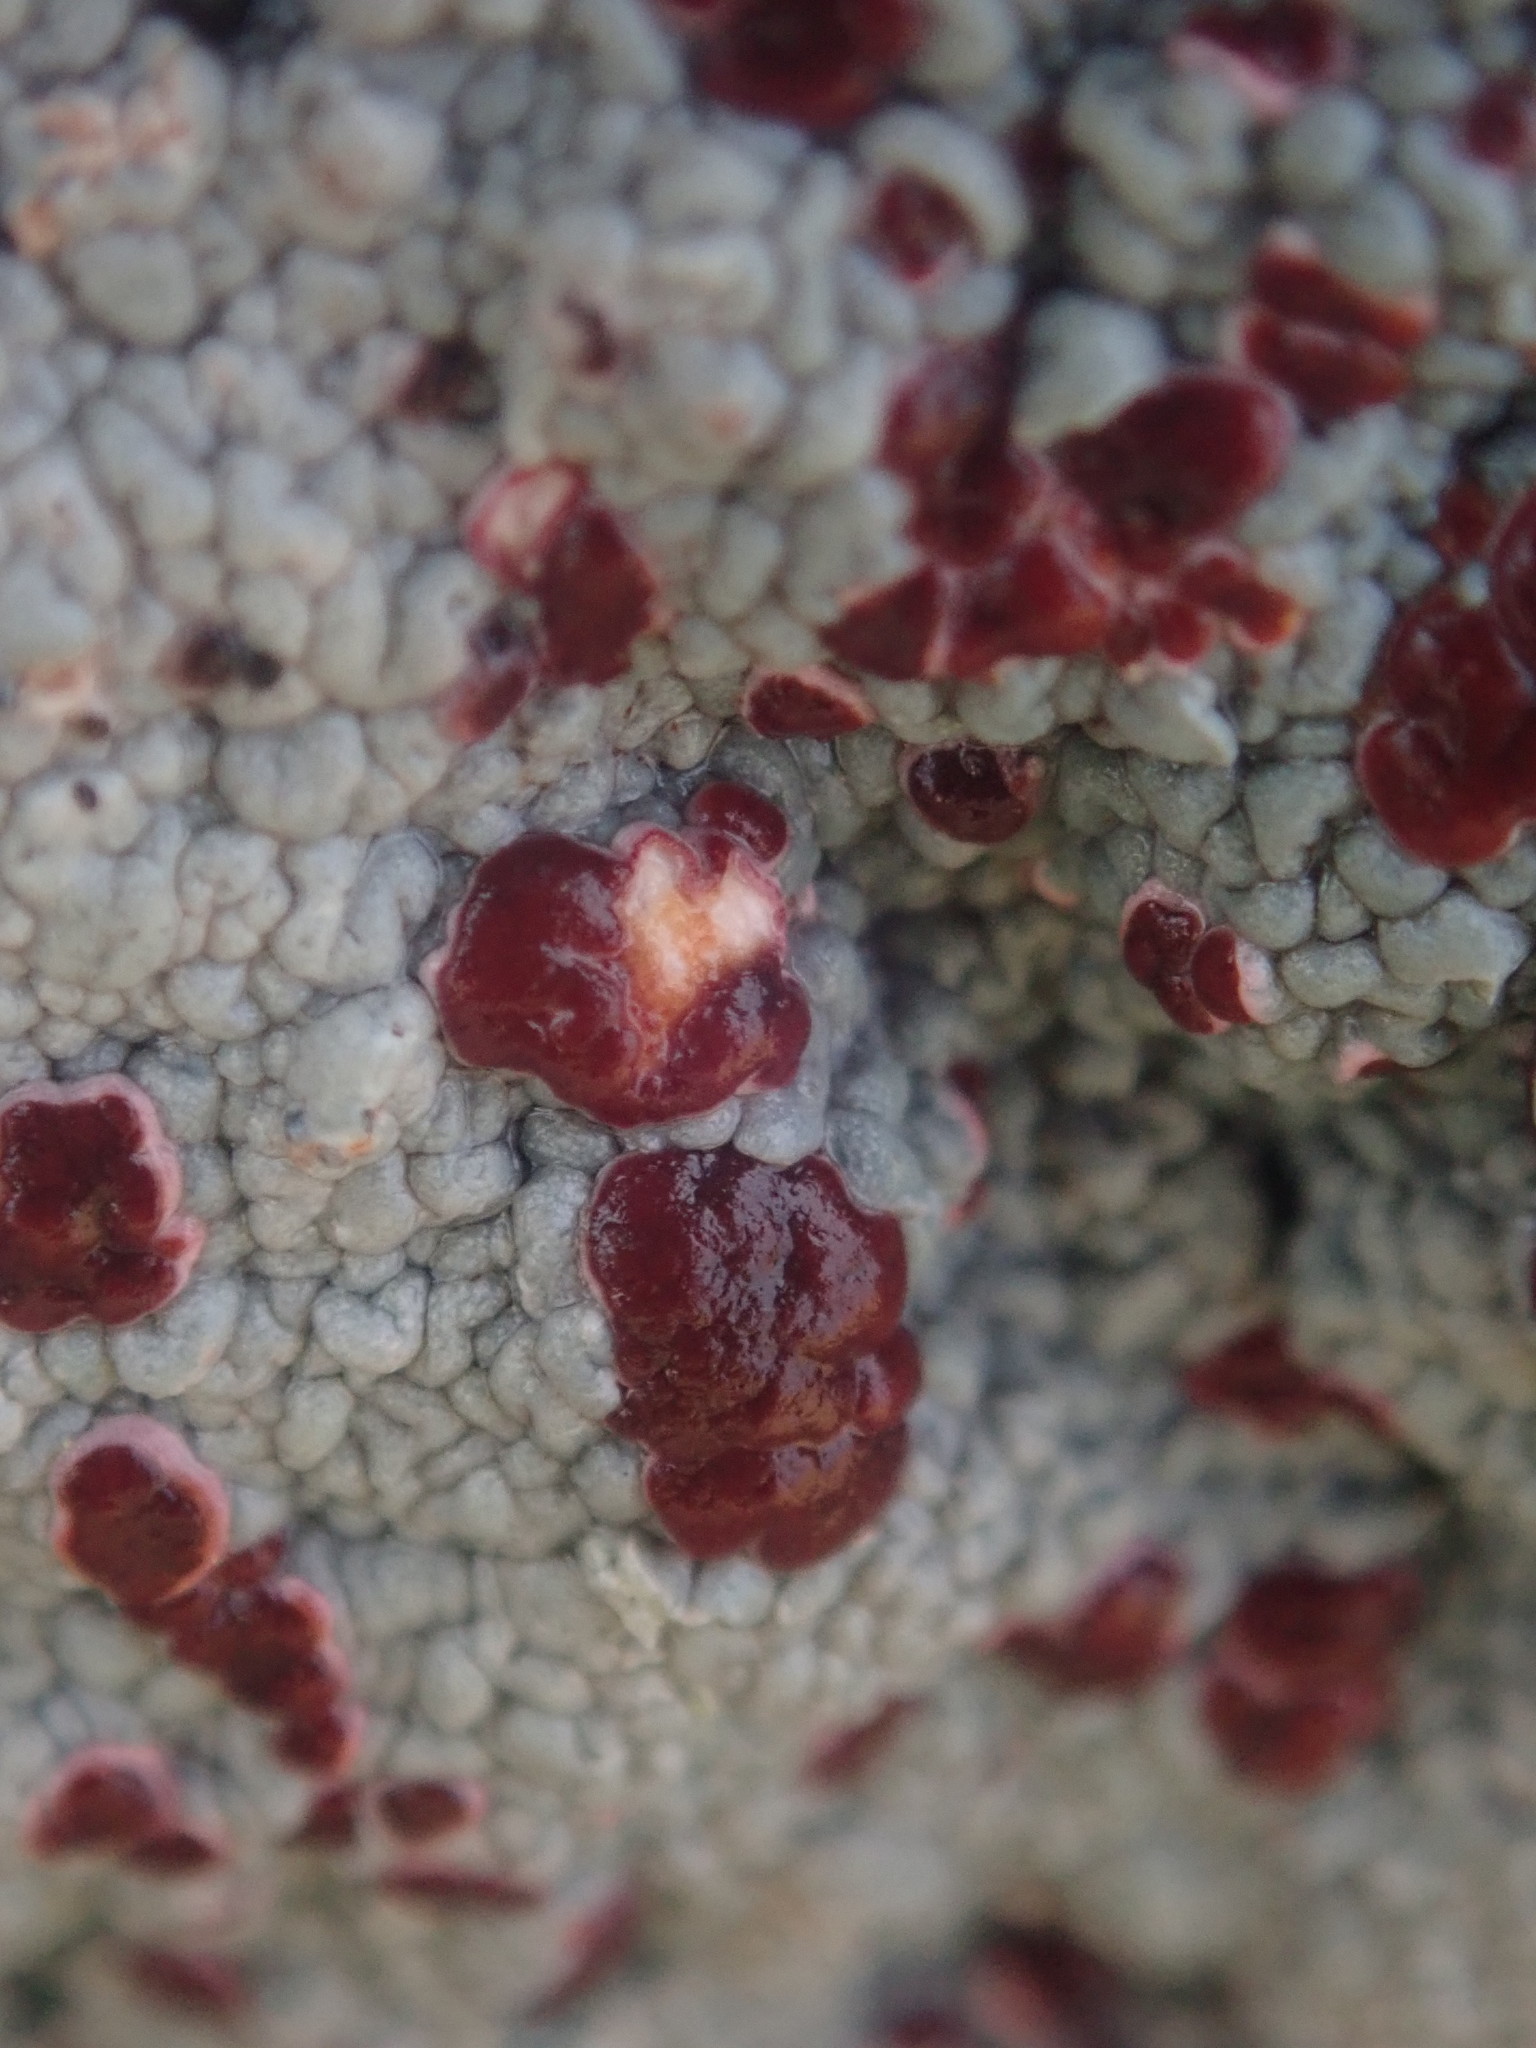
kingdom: Fungi
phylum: Ascomycota
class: Lecanoromycetes
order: Umbilicariales
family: Ophioparmaceae
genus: Ophioparma
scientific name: Ophioparma ventosa
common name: Blood-spot
